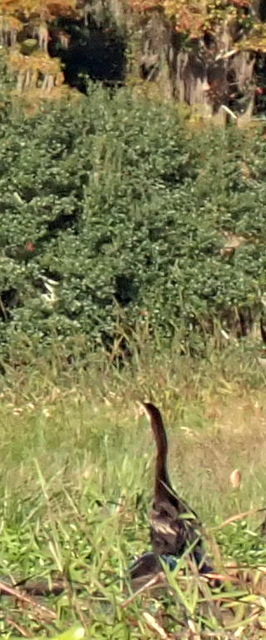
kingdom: Animalia
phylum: Chordata
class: Aves
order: Suliformes
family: Anhingidae
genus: Anhinga
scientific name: Anhinga anhinga
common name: Anhinga
